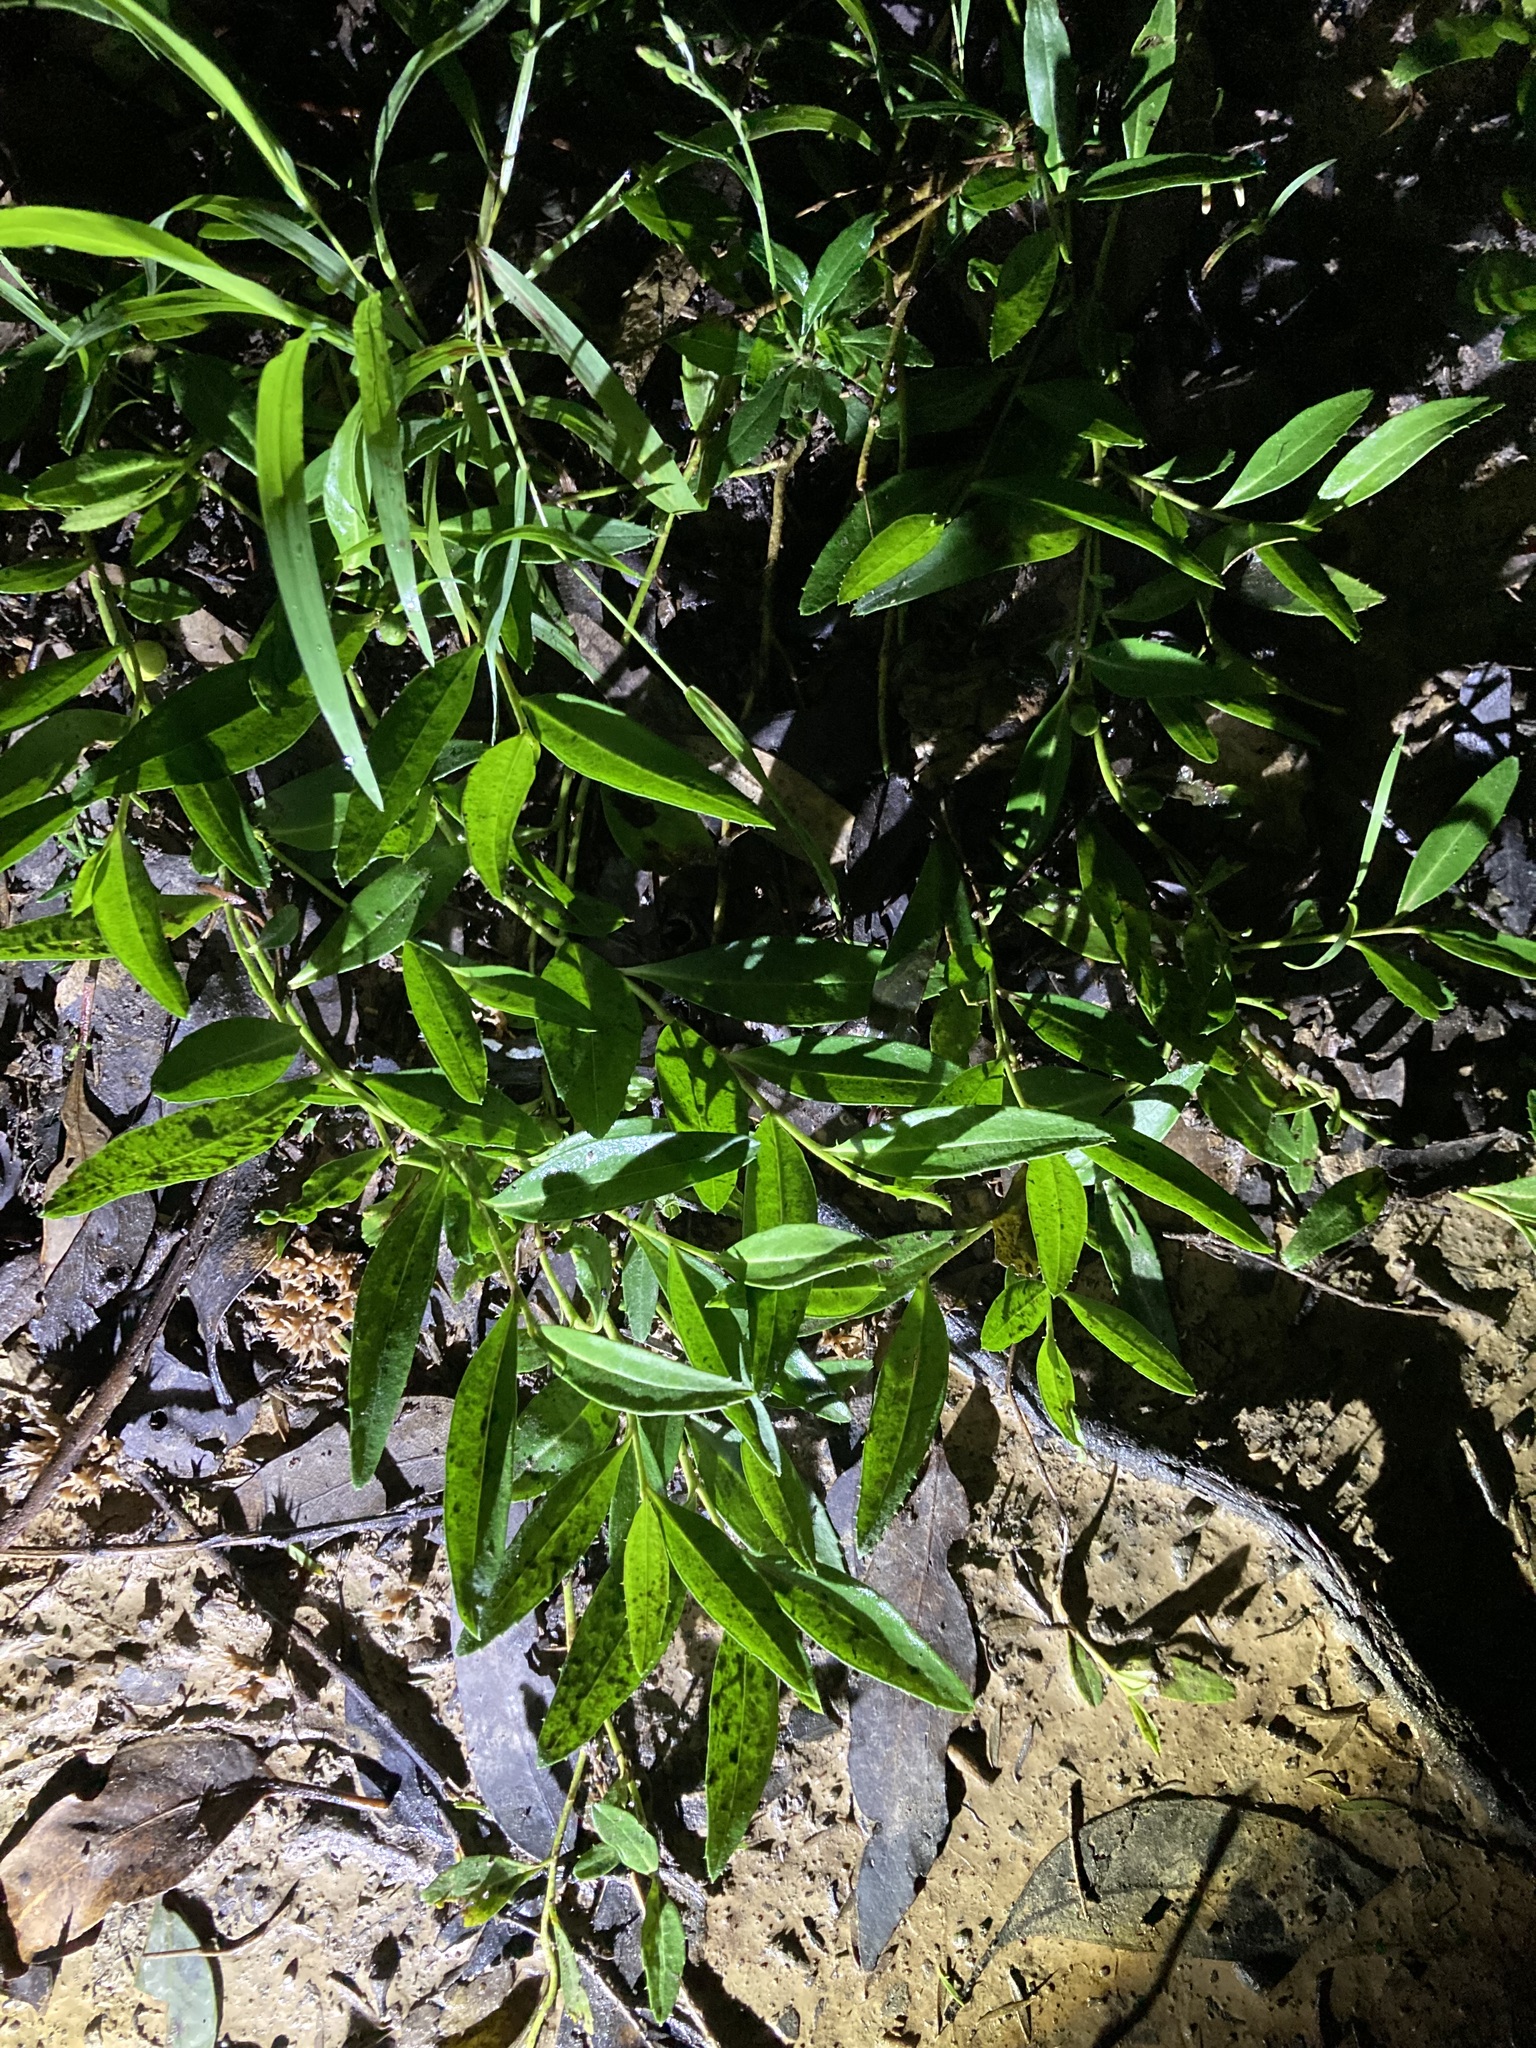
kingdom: Plantae
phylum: Tracheophyta
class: Magnoliopsida
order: Lamiales
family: Scrophulariaceae
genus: Eremophila
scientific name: Eremophila debilis
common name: Winter-apple
